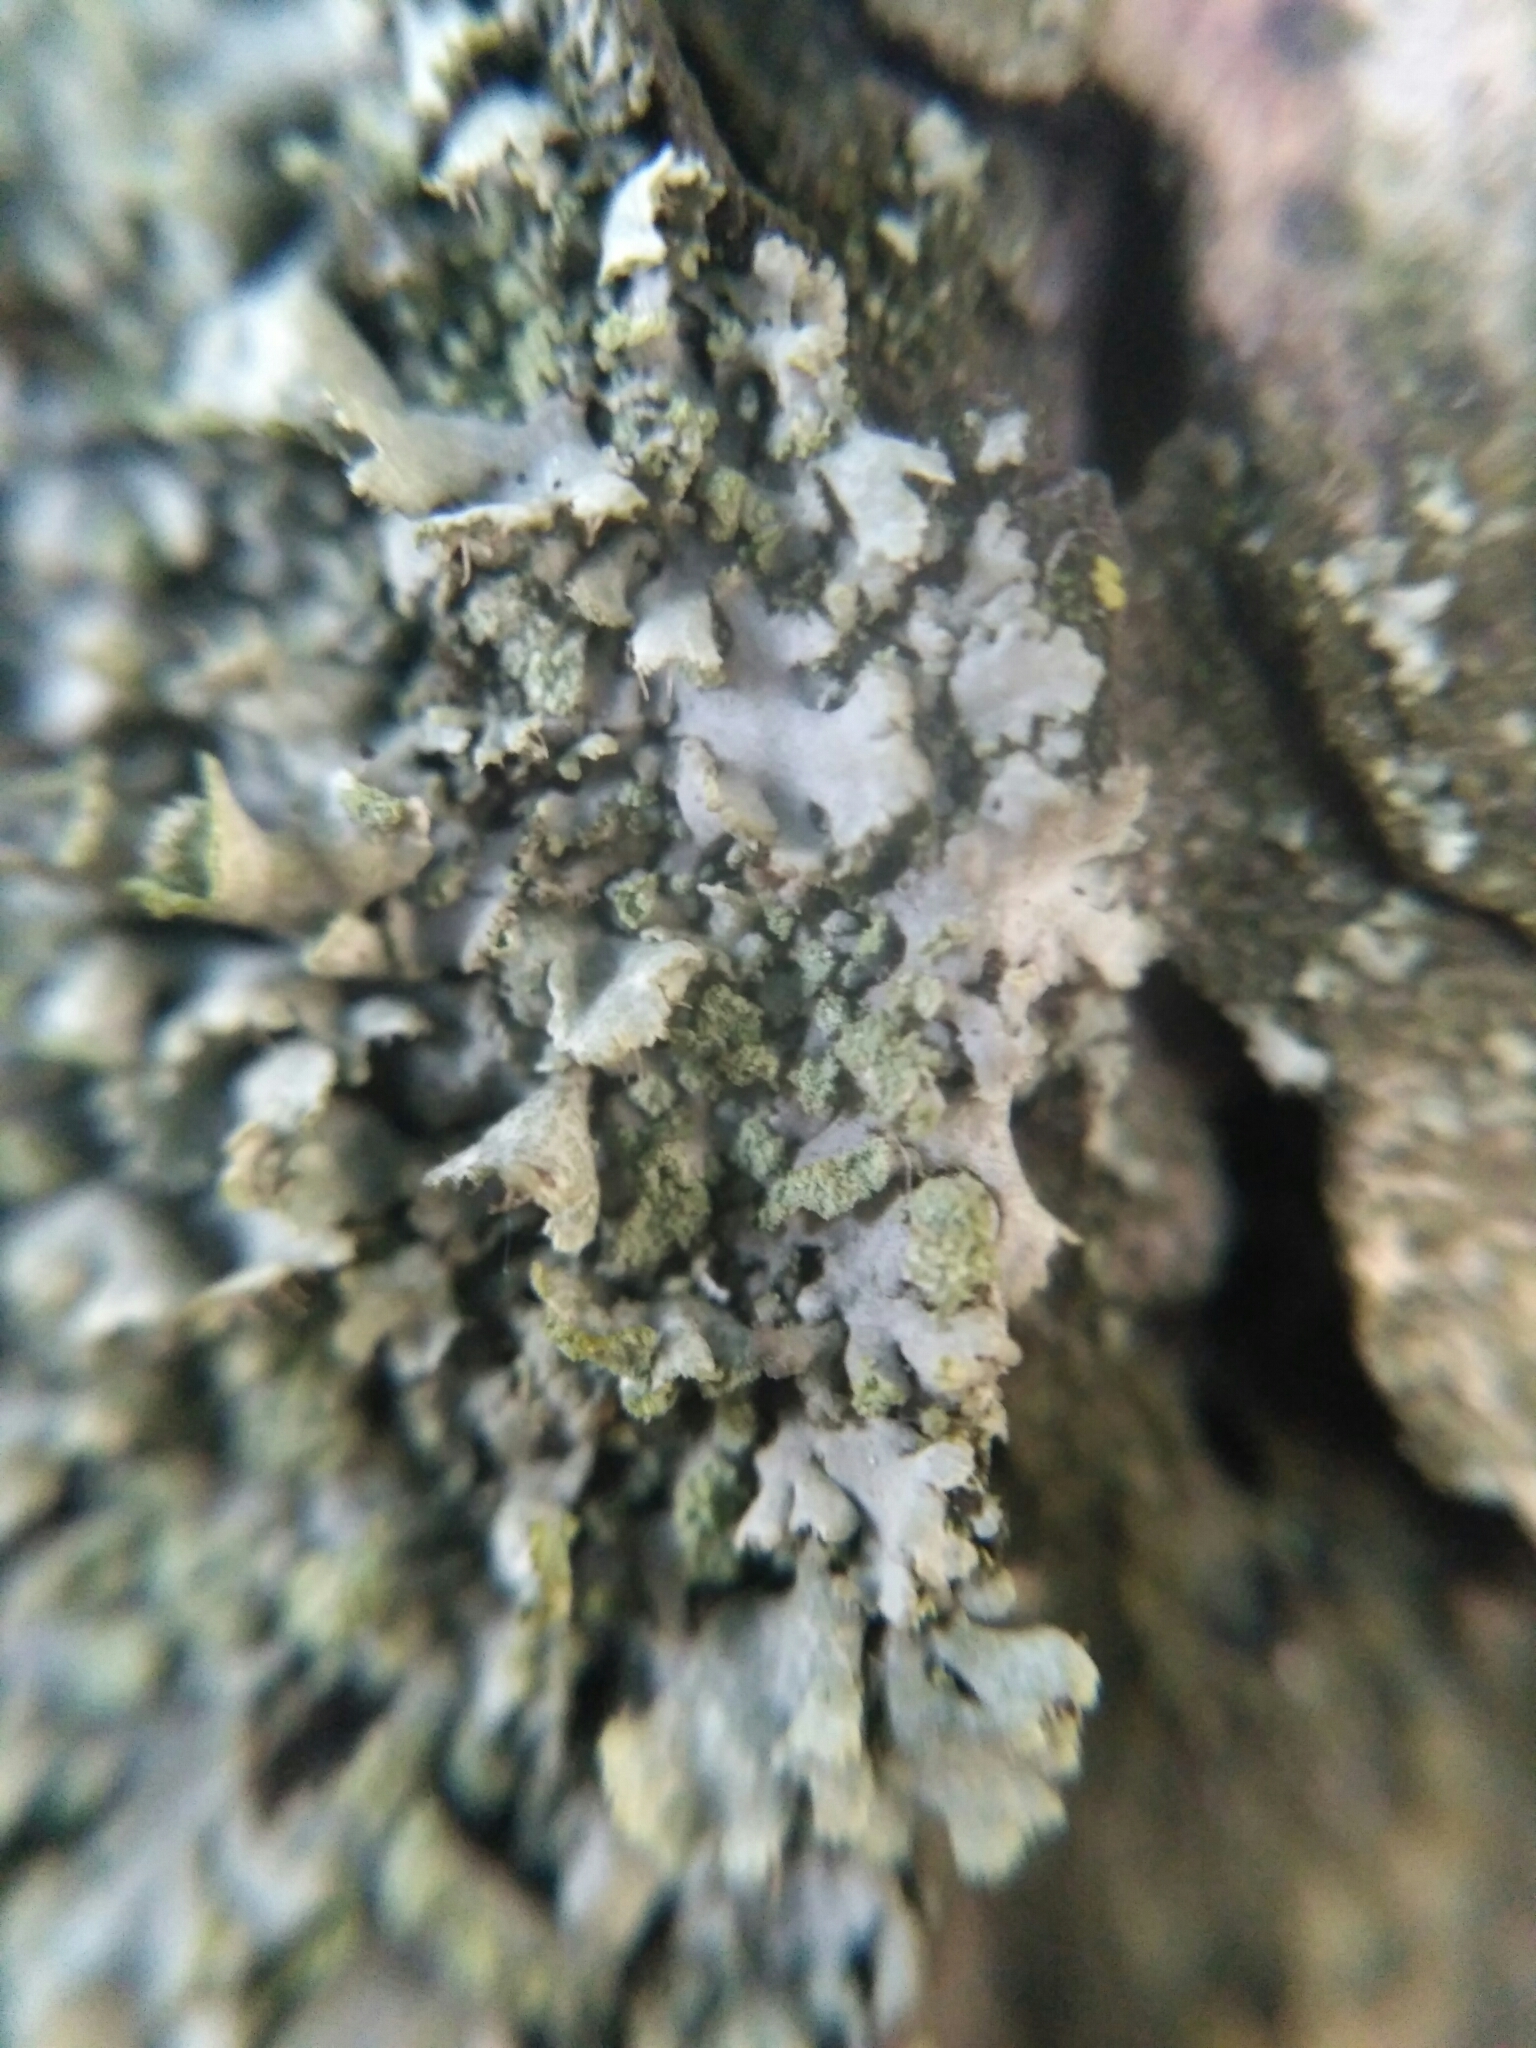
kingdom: Fungi
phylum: Ascomycota
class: Lecanoromycetes
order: Caliciales
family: Physciaceae
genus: Physcia
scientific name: Physcia adscendens
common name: Hooded rosette lichen
